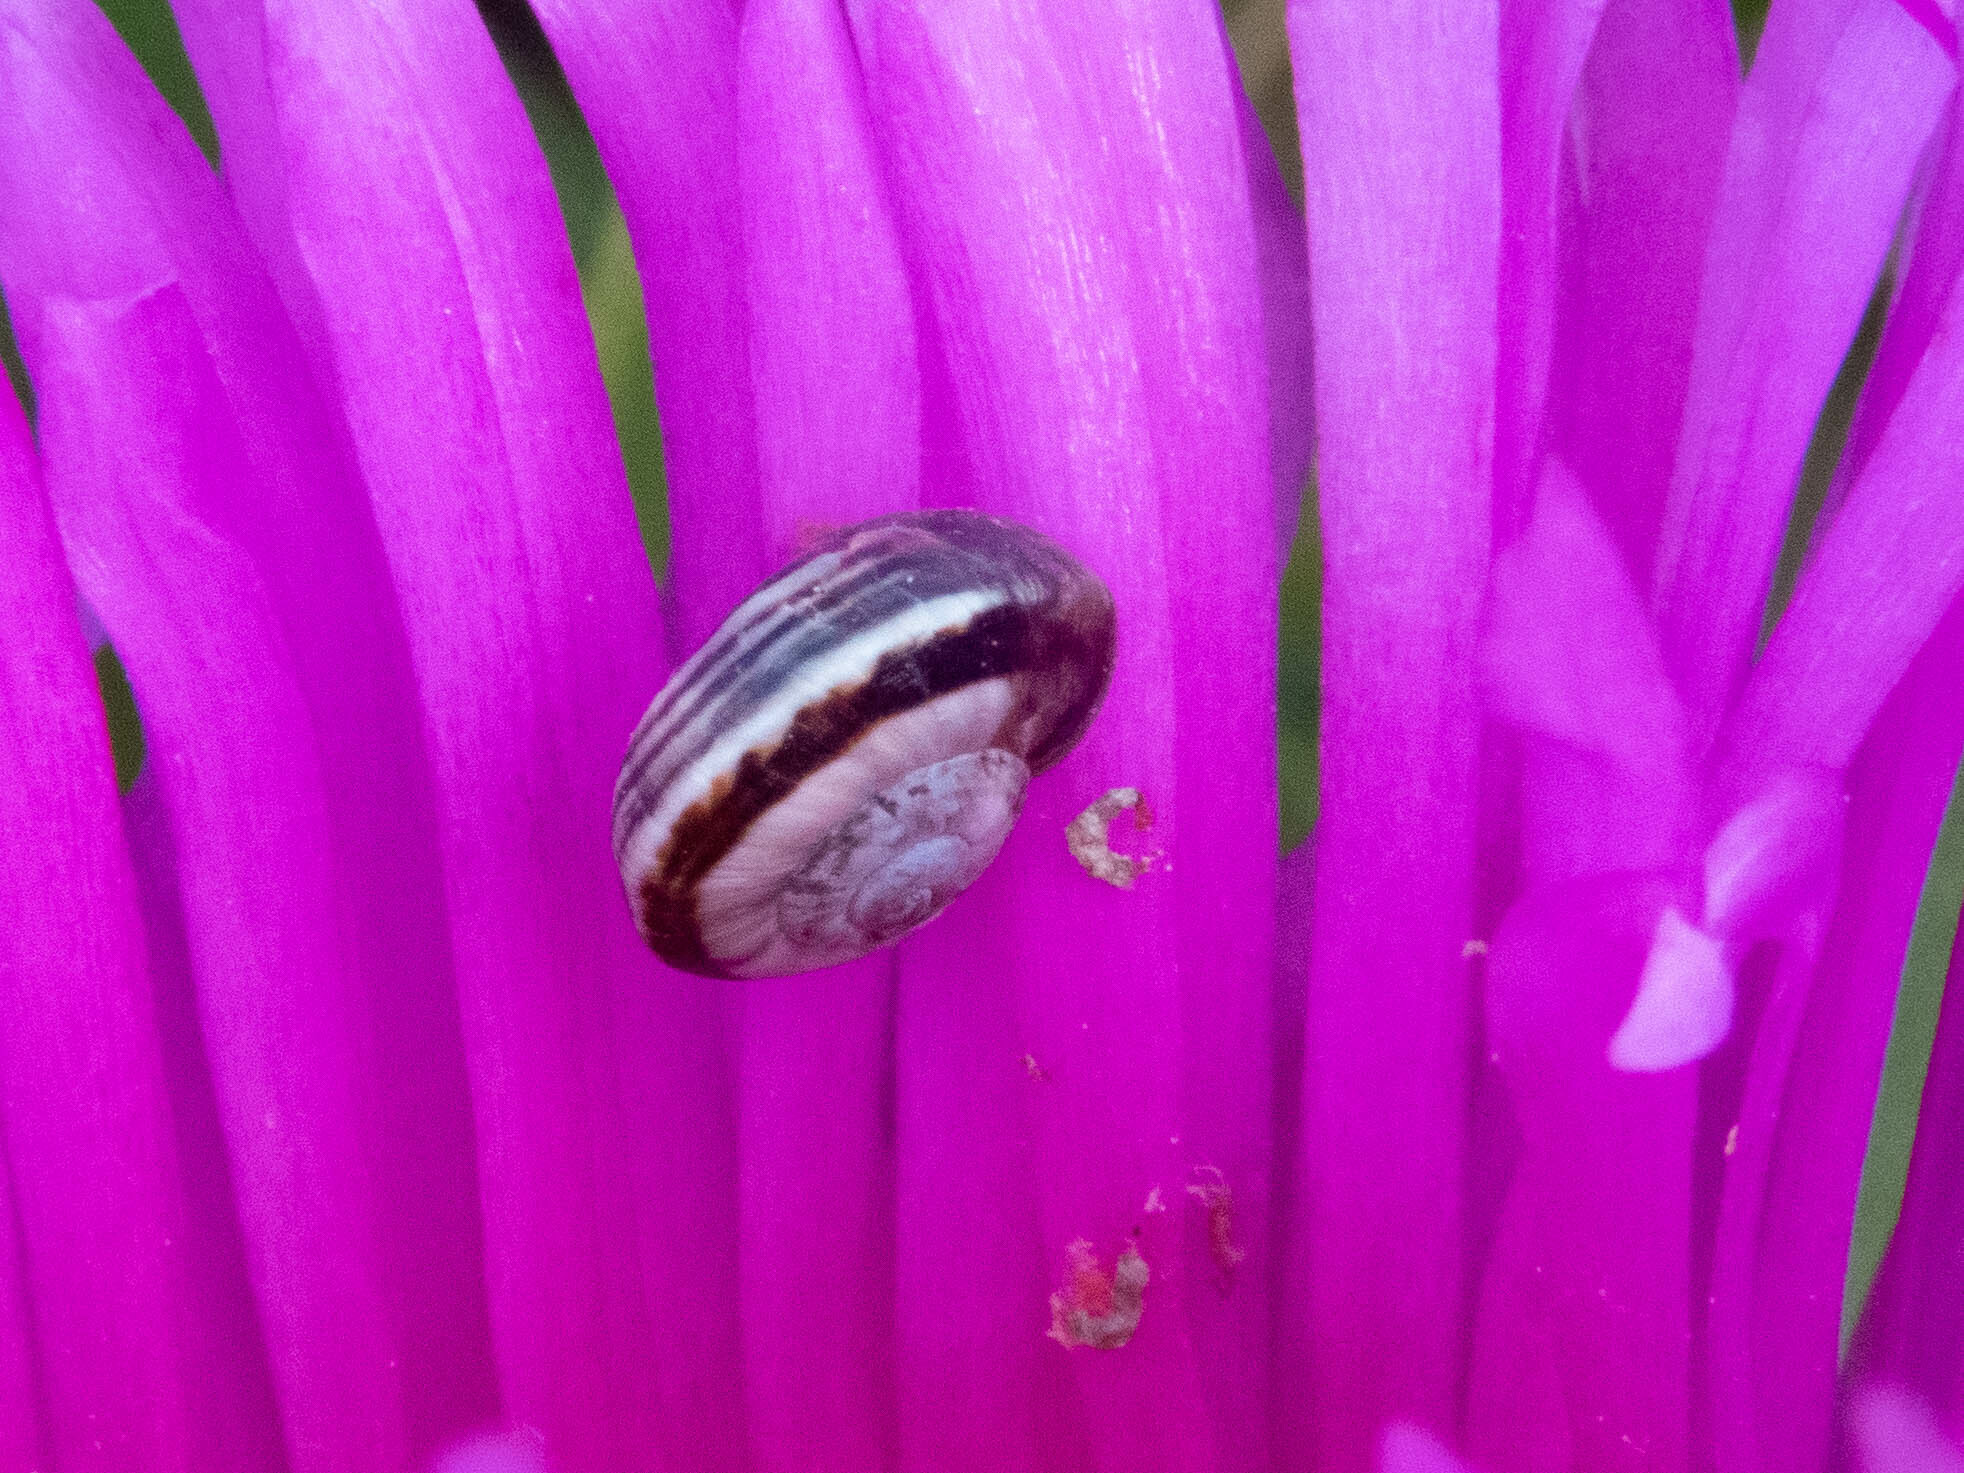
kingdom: Animalia
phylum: Mollusca
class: Gastropoda
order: Stylommatophora
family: Helicidae
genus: Theba
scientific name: Theba pisana
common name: White snail
